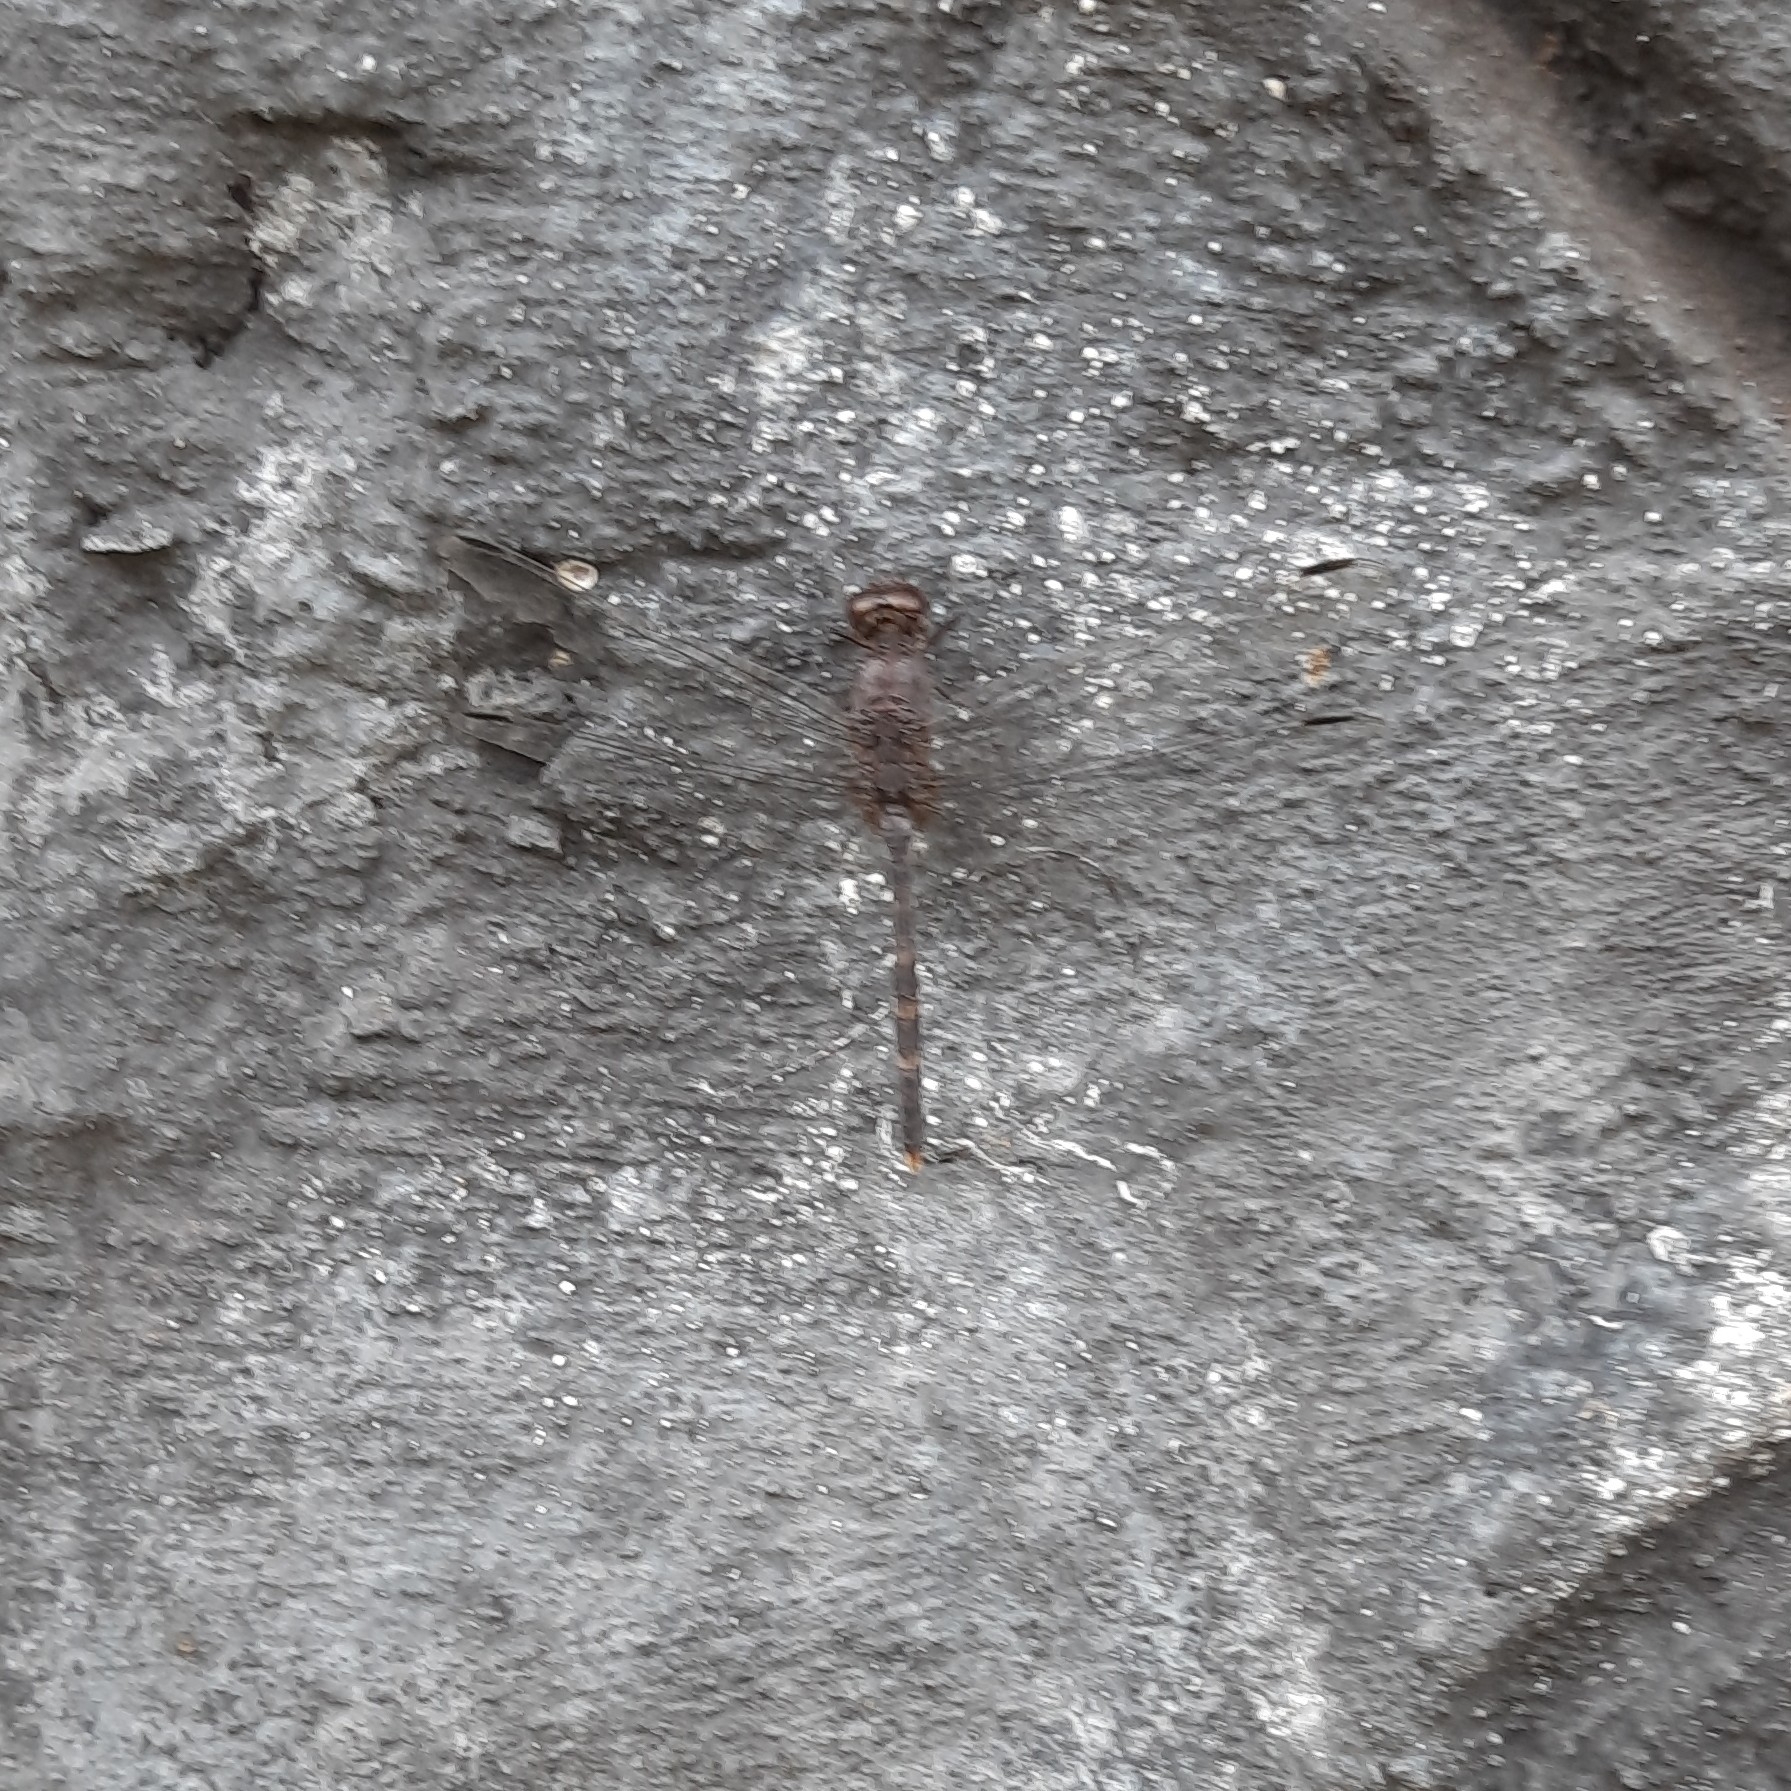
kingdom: Animalia
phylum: Arthropoda
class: Insecta
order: Odonata
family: Libellulidae
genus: Bradinopyga
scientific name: Bradinopyga geminata
